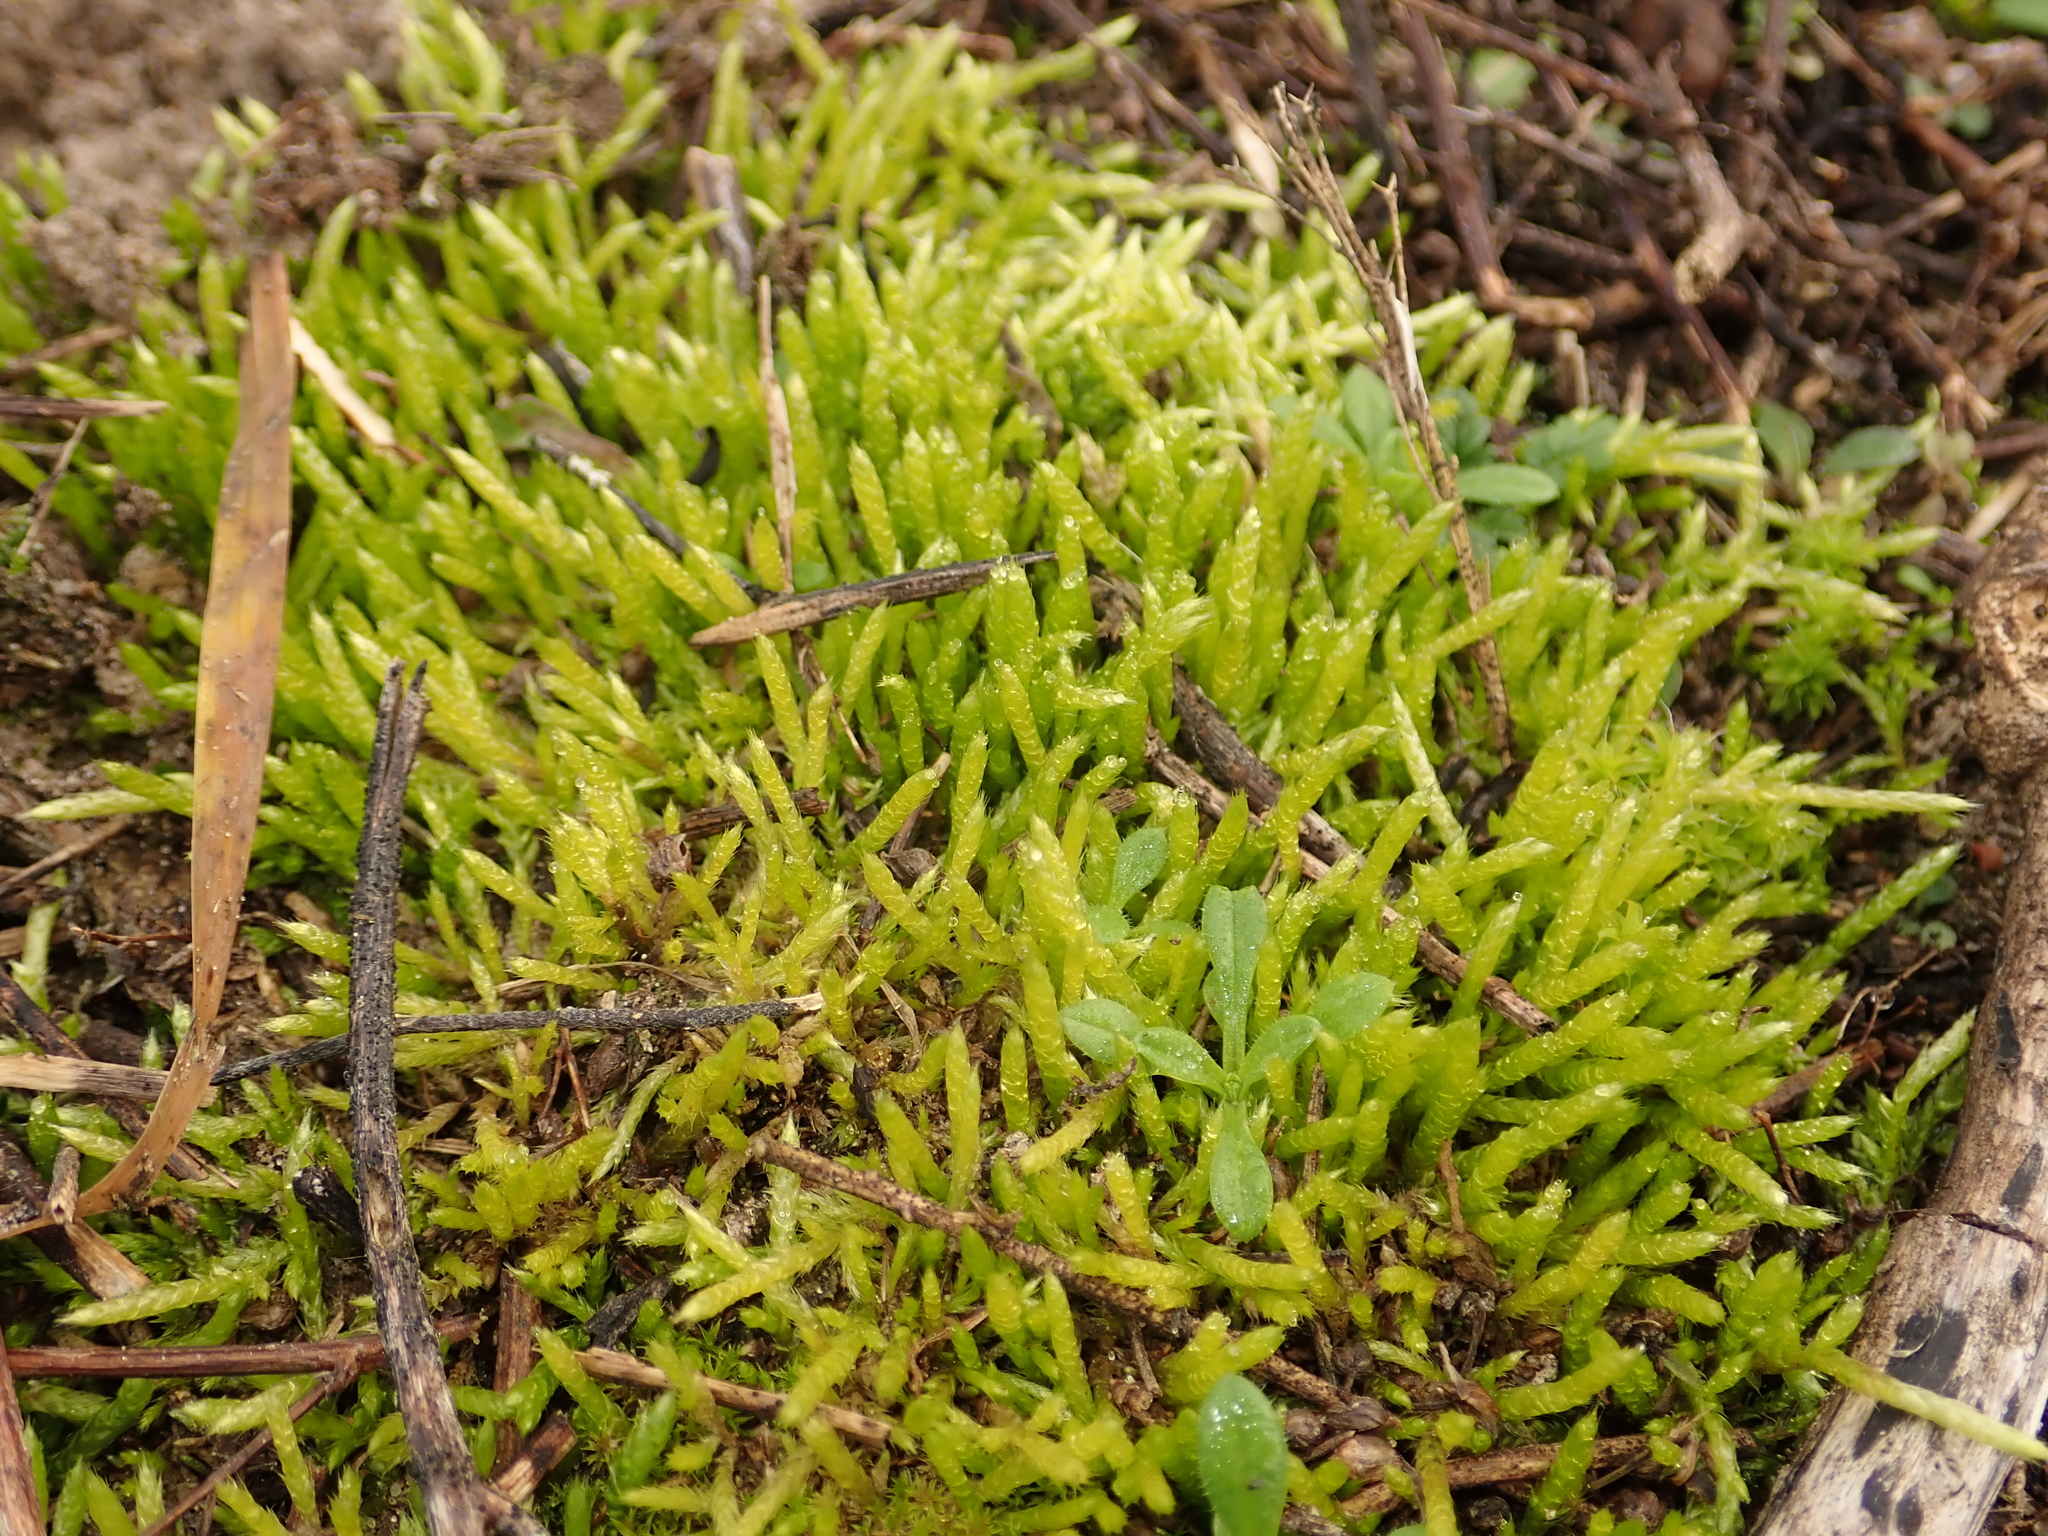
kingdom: Plantae
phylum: Bryophyta
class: Bryopsida
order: Hypnales
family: Brachytheciaceae
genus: Brachythecium
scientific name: Brachythecium albicans
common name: Whitish ragged moss
